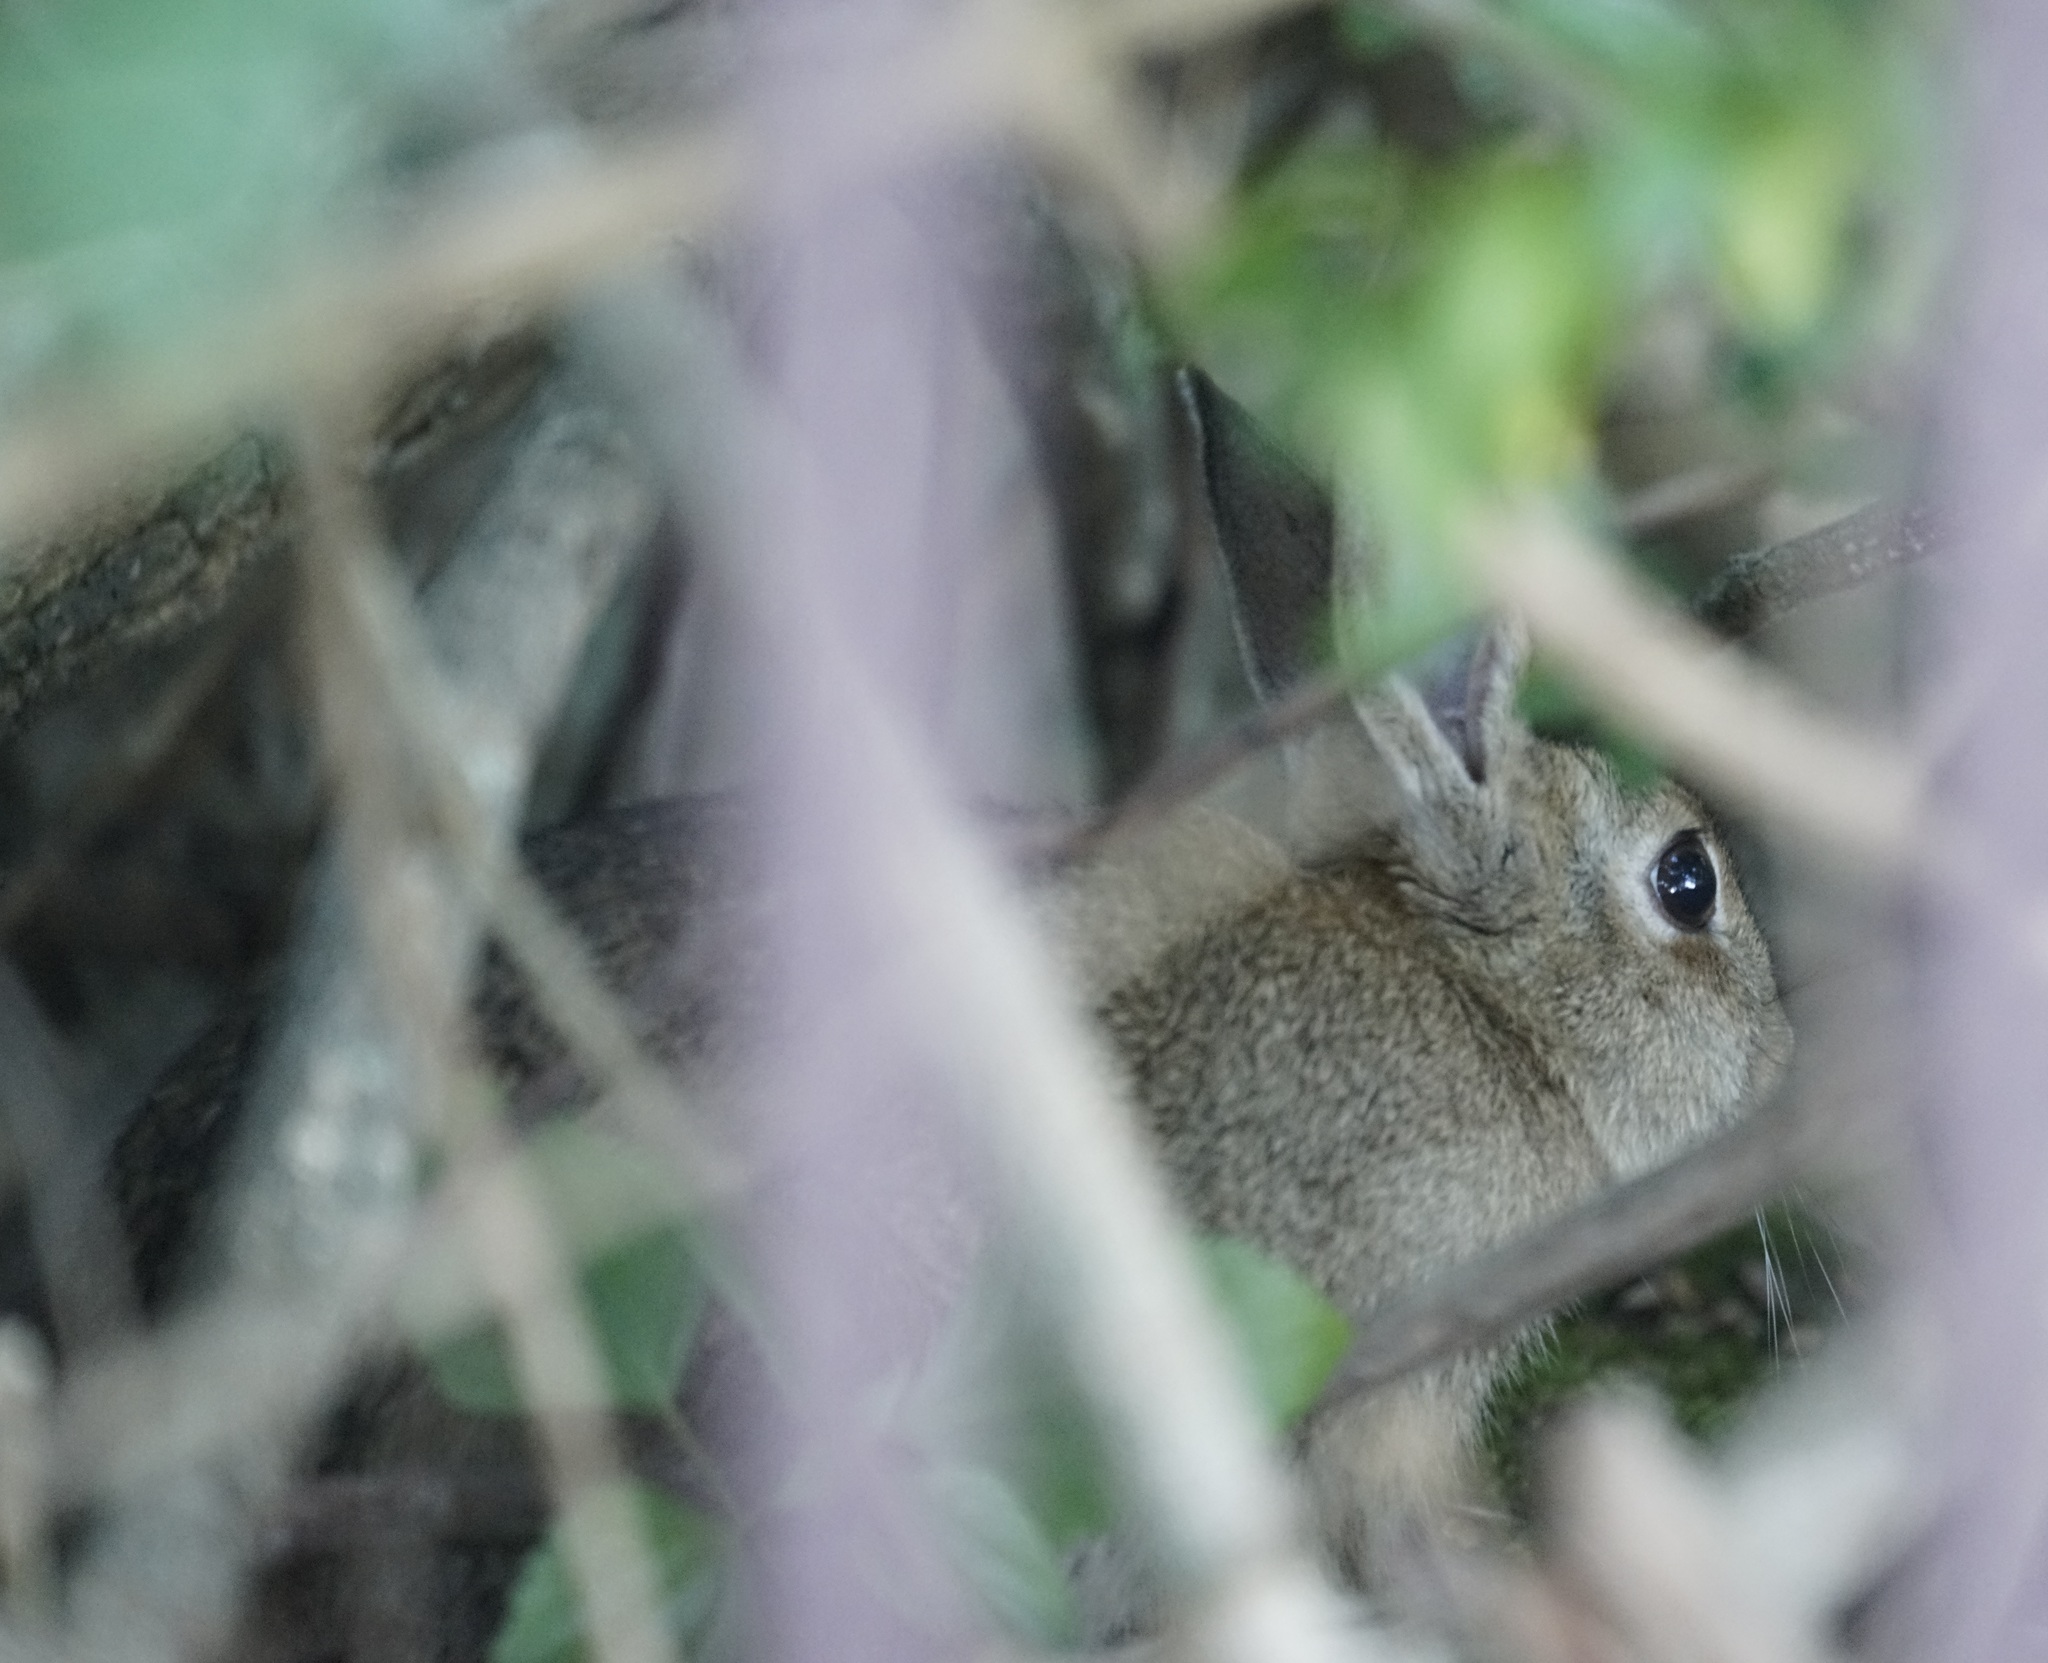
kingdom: Animalia
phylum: Chordata
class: Mammalia
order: Lagomorpha
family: Leporidae
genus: Oryctolagus
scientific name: Oryctolagus cuniculus
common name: European rabbit
